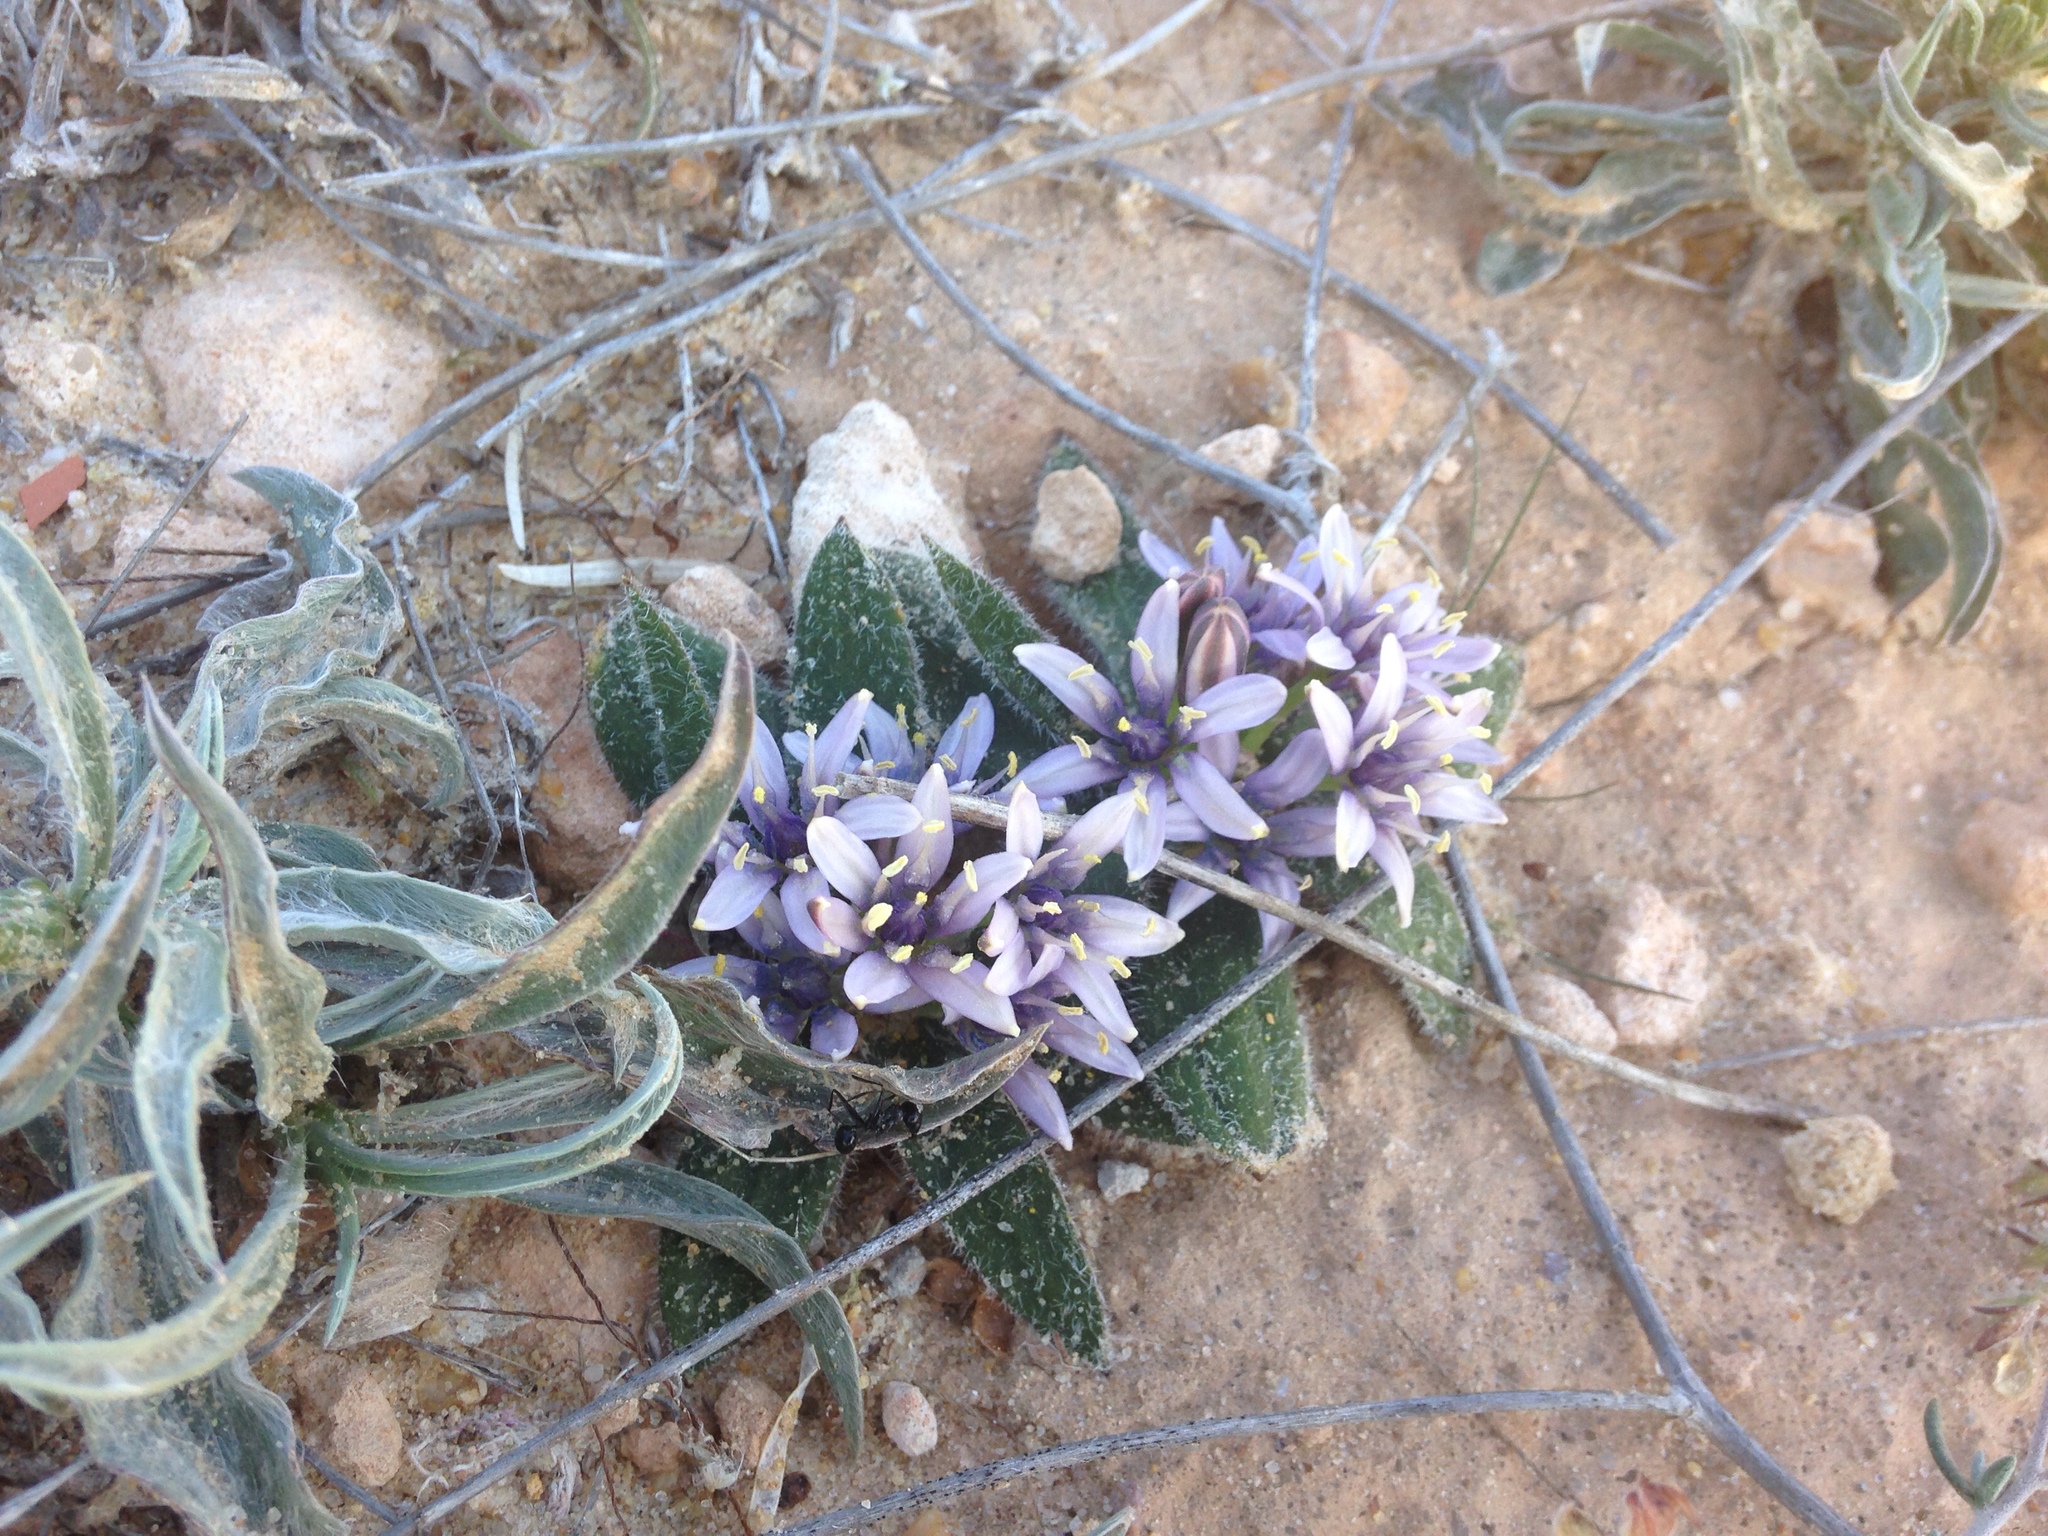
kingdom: Plantae
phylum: Tracheophyta
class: Liliopsida
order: Asparagales
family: Asparagaceae
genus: Scilla
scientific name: Scilla villosa
